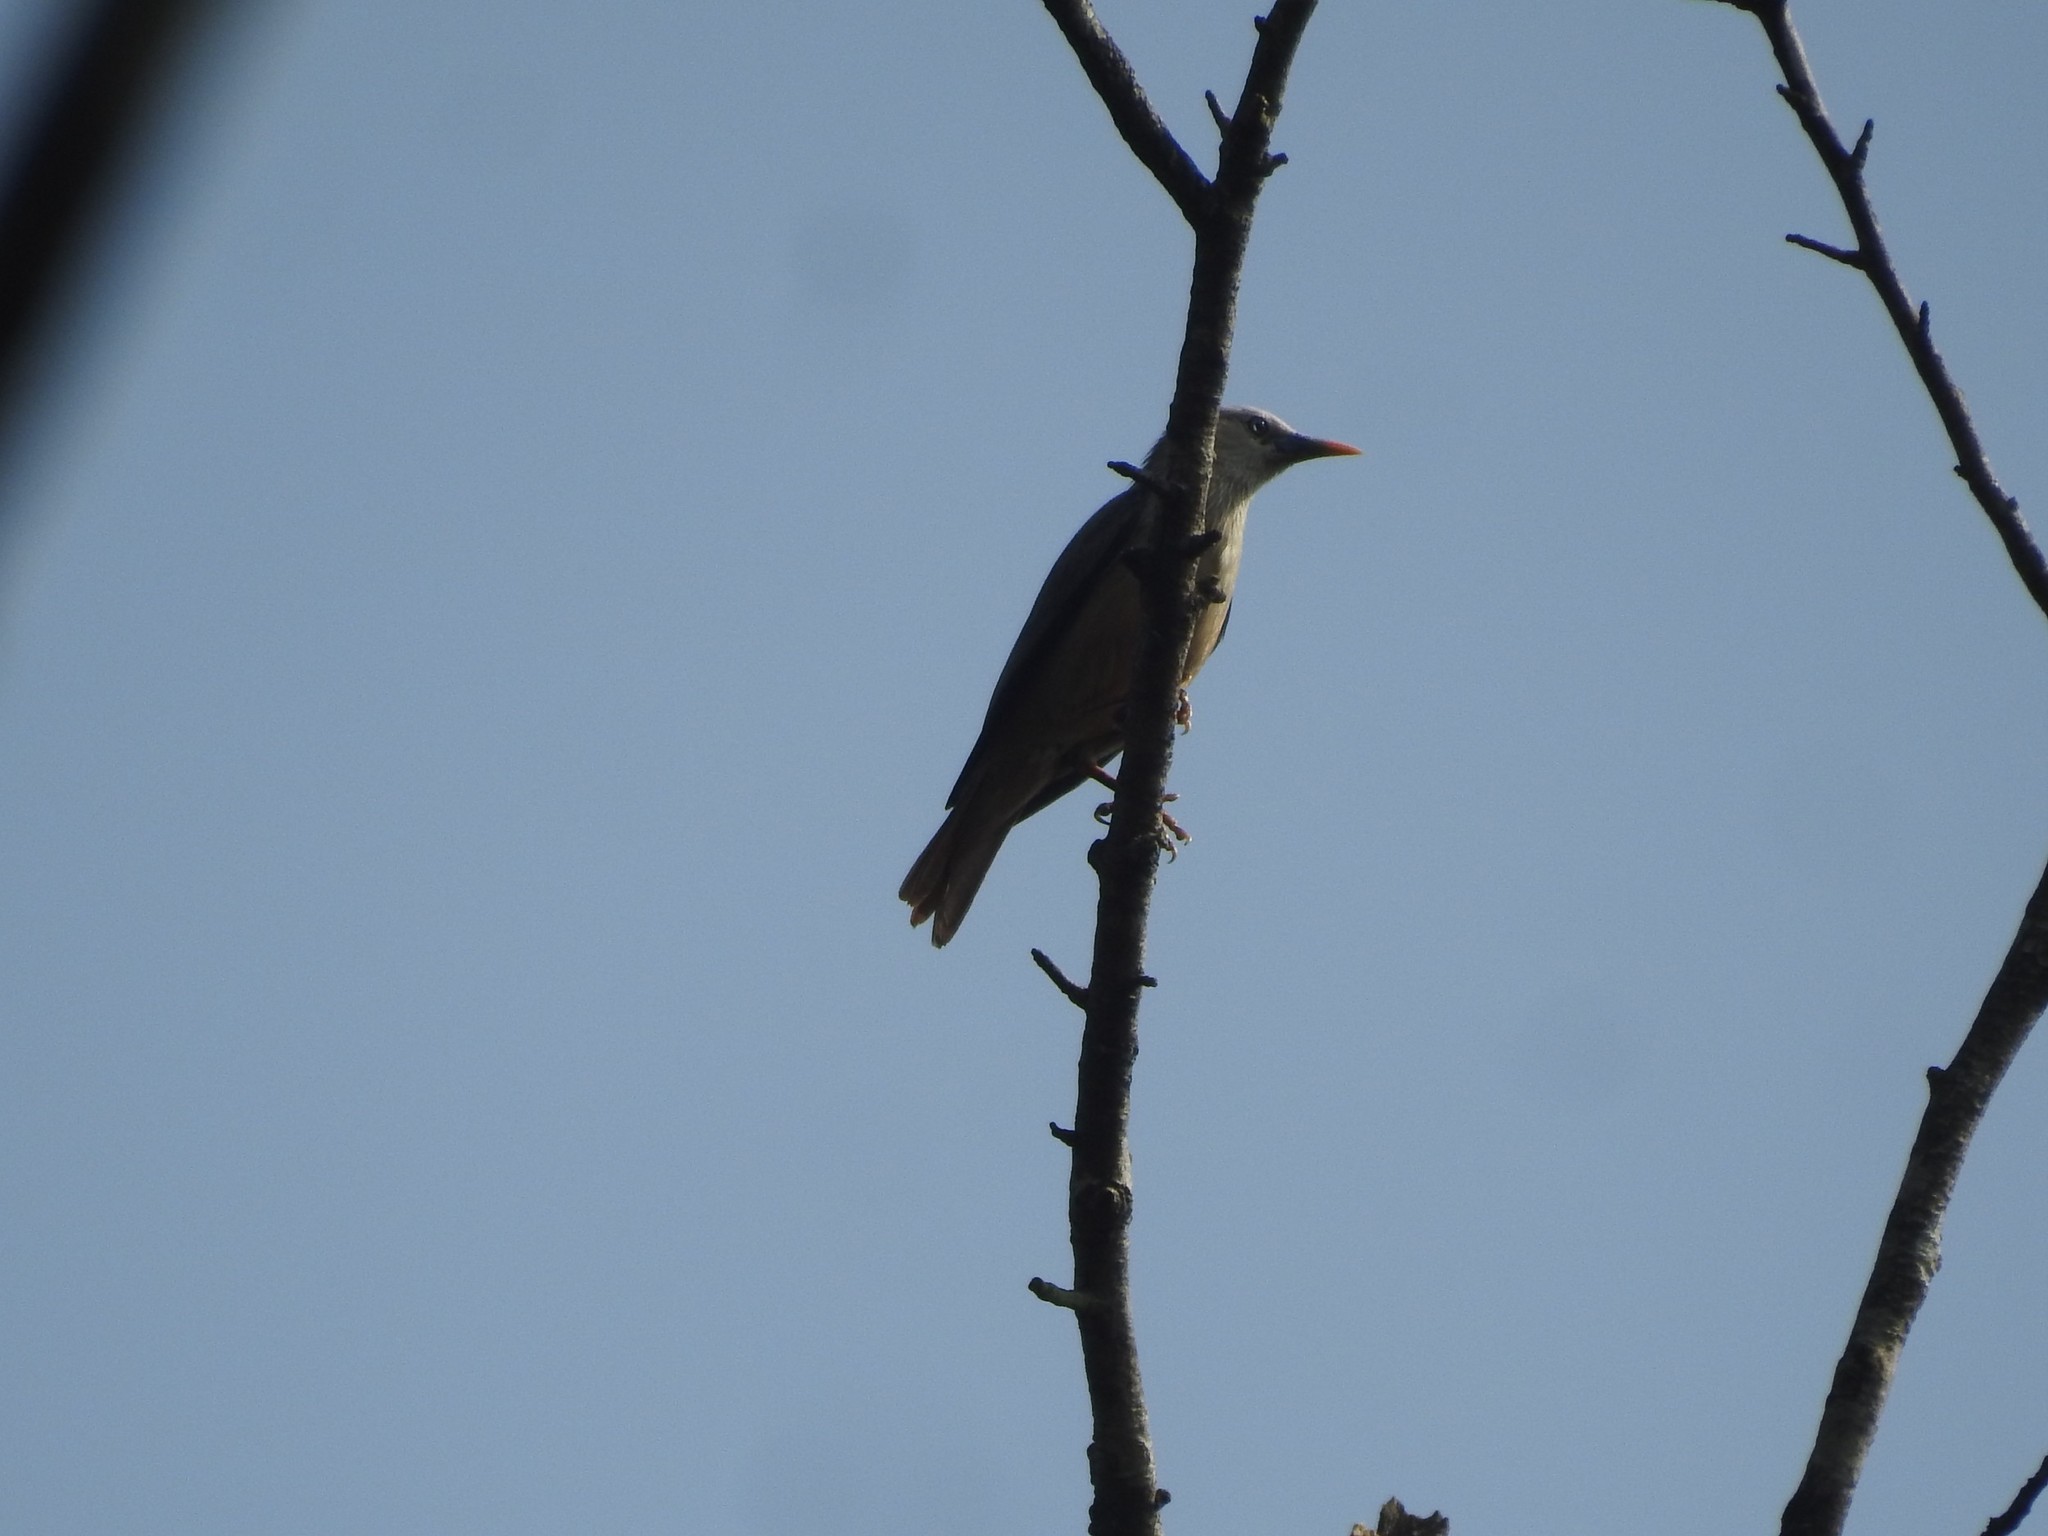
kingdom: Animalia
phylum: Chordata
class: Aves
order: Passeriformes
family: Sturnidae
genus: Sturnia
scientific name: Sturnia blythii
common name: Malabar starling
